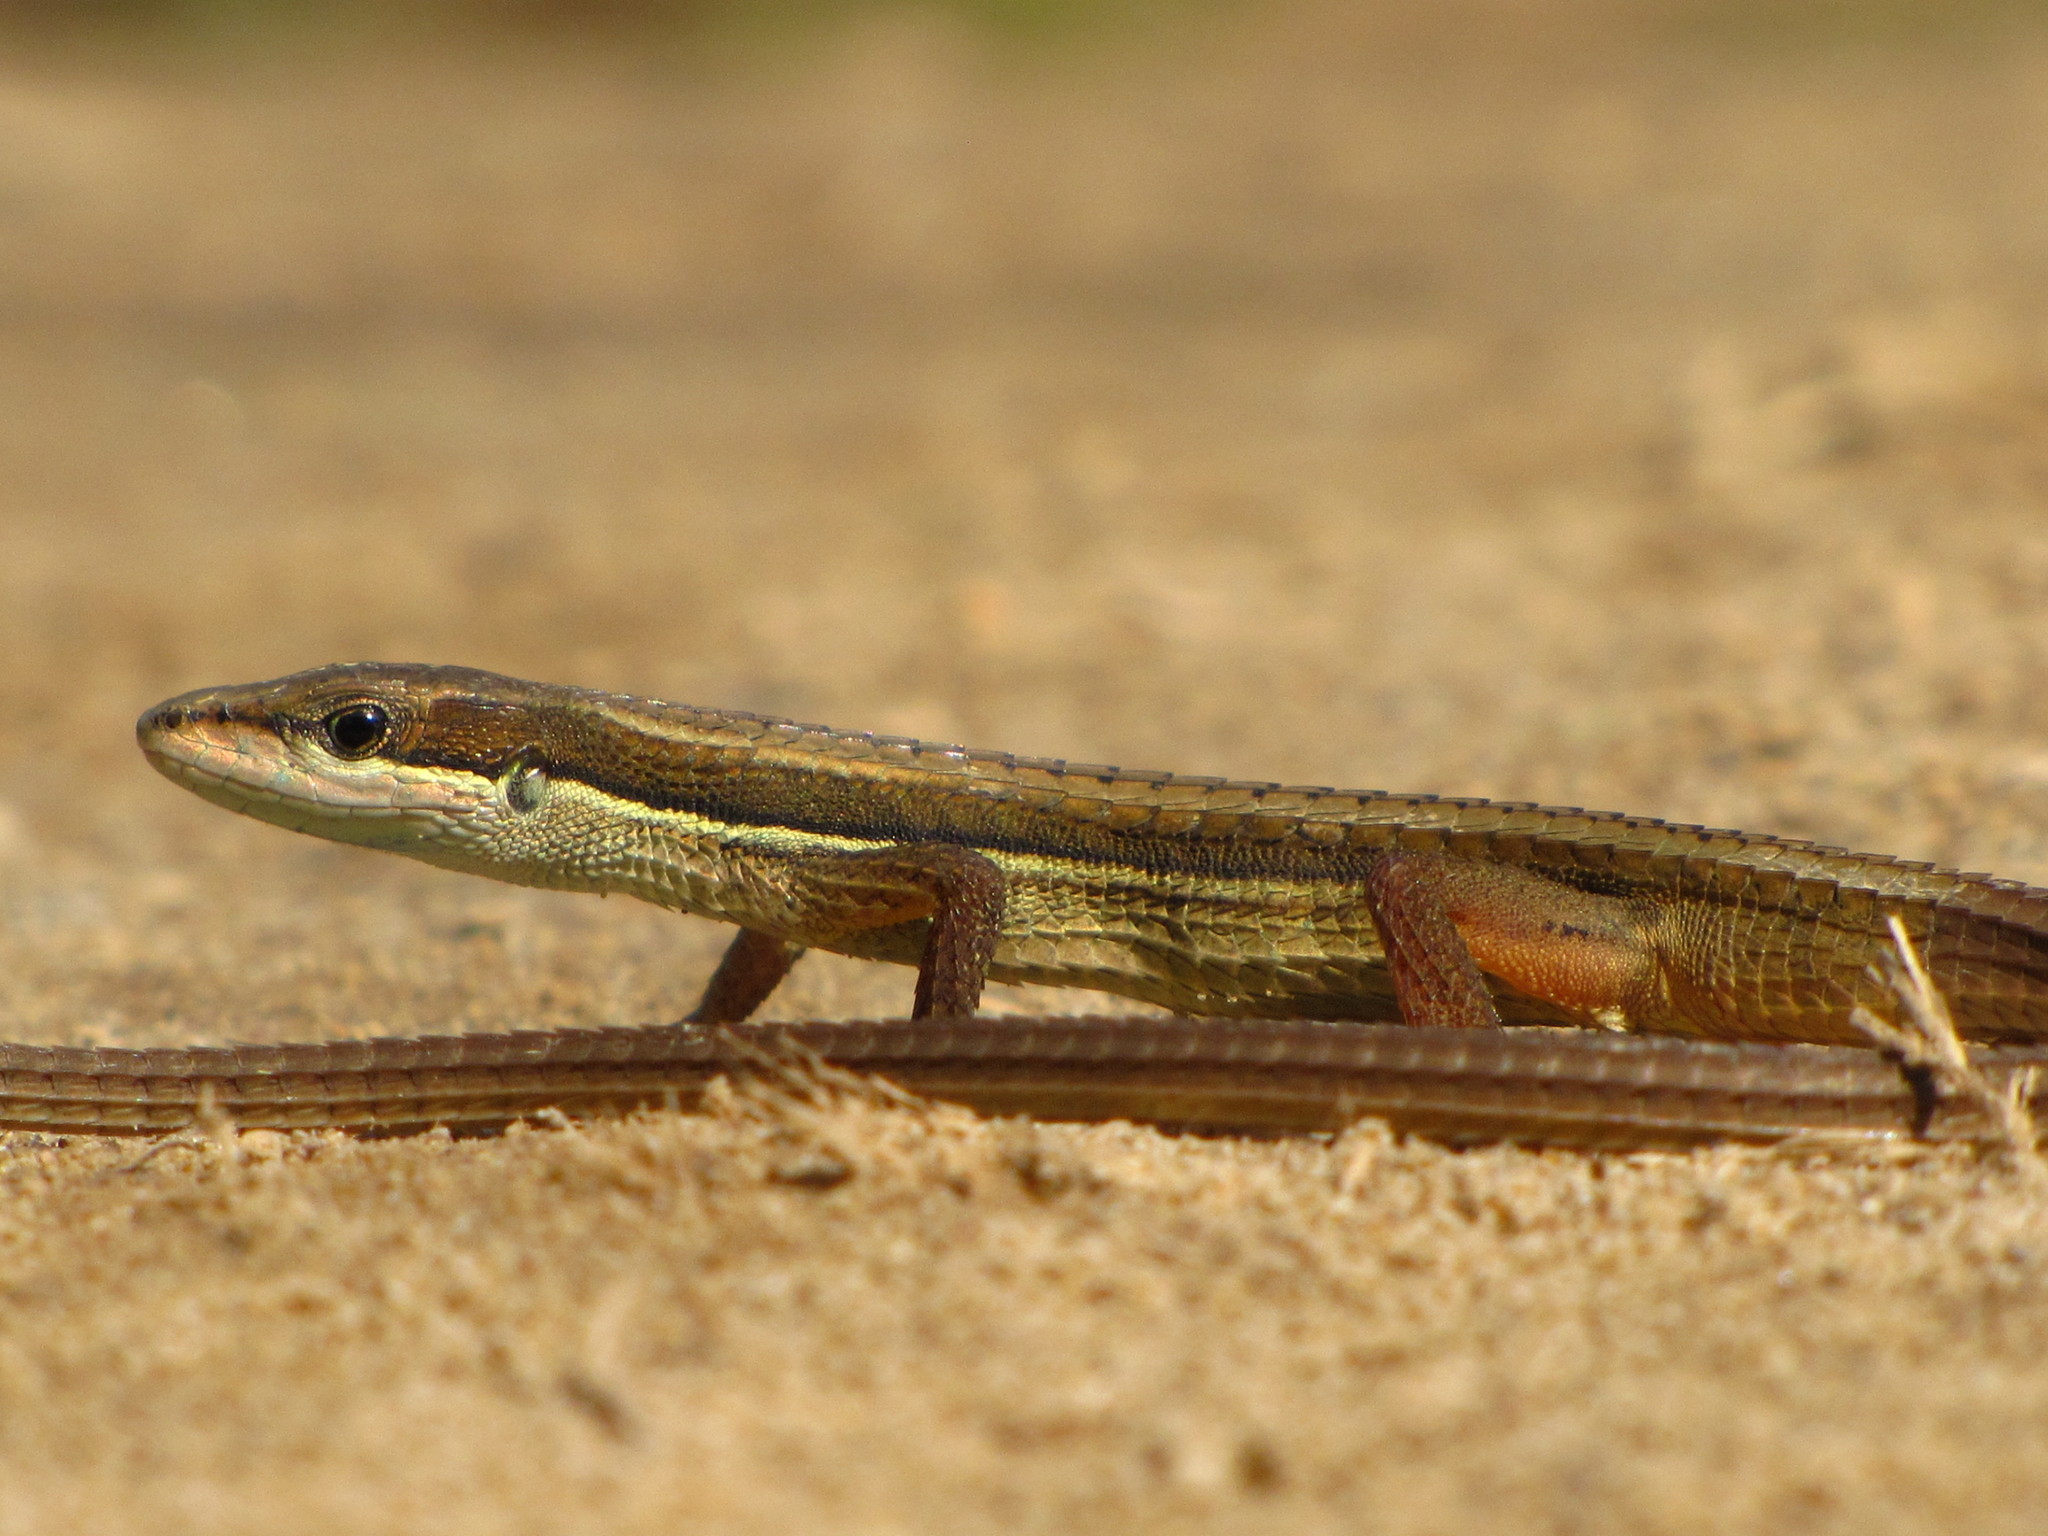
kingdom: Animalia
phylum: Chordata
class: Squamata
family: Lacertidae
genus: Takydromus
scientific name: Takydromus sexlineatus
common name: Asian grass lizard
